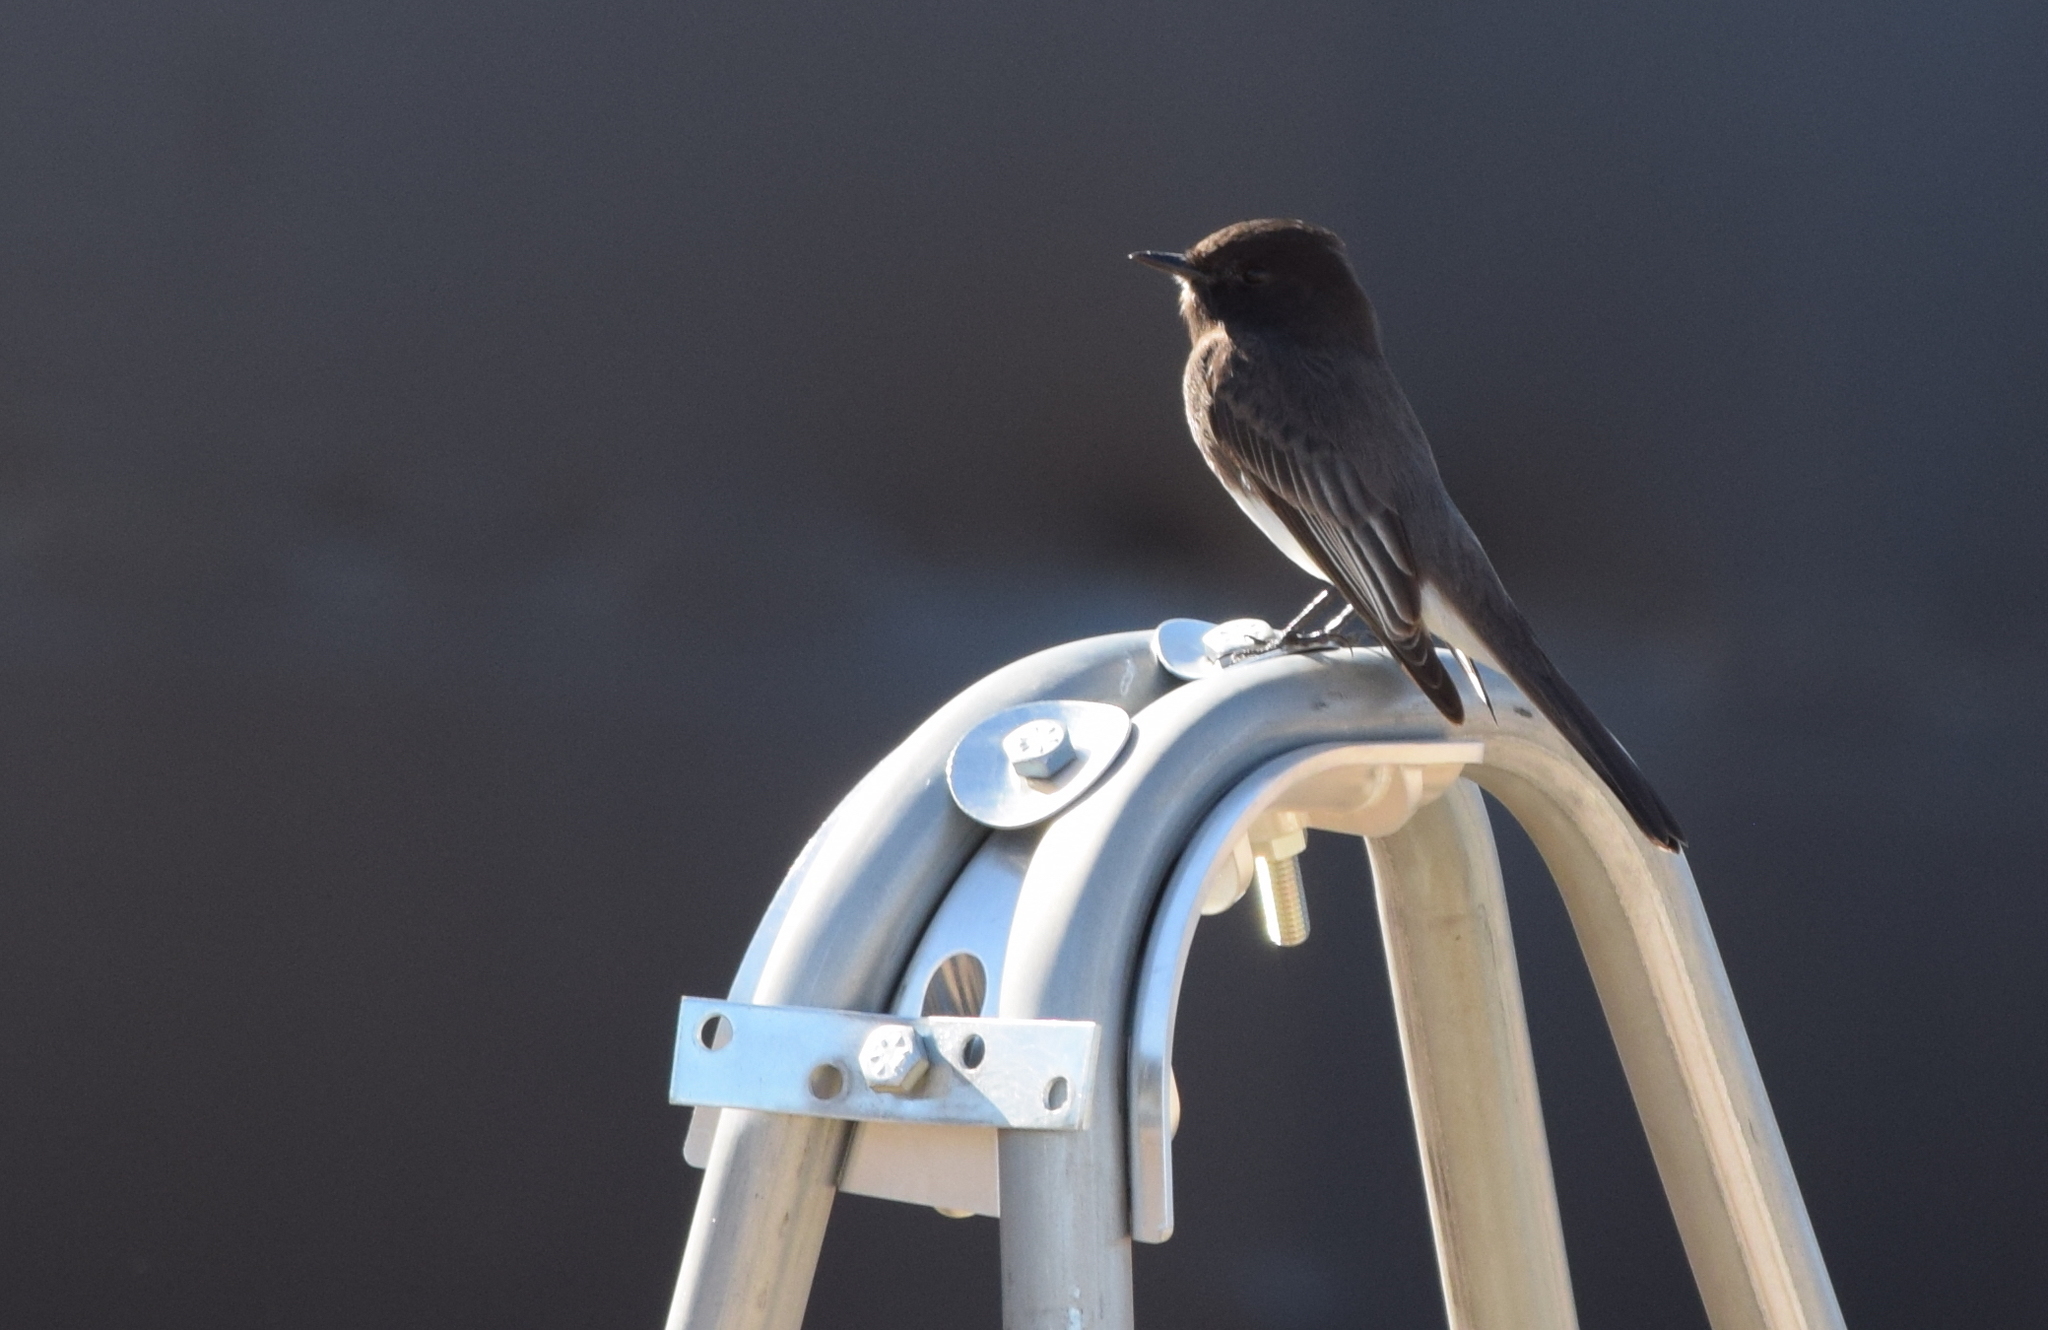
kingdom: Animalia
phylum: Chordata
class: Aves
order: Passeriformes
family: Tyrannidae
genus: Sayornis
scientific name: Sayornis nigricans
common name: Black phoebe
